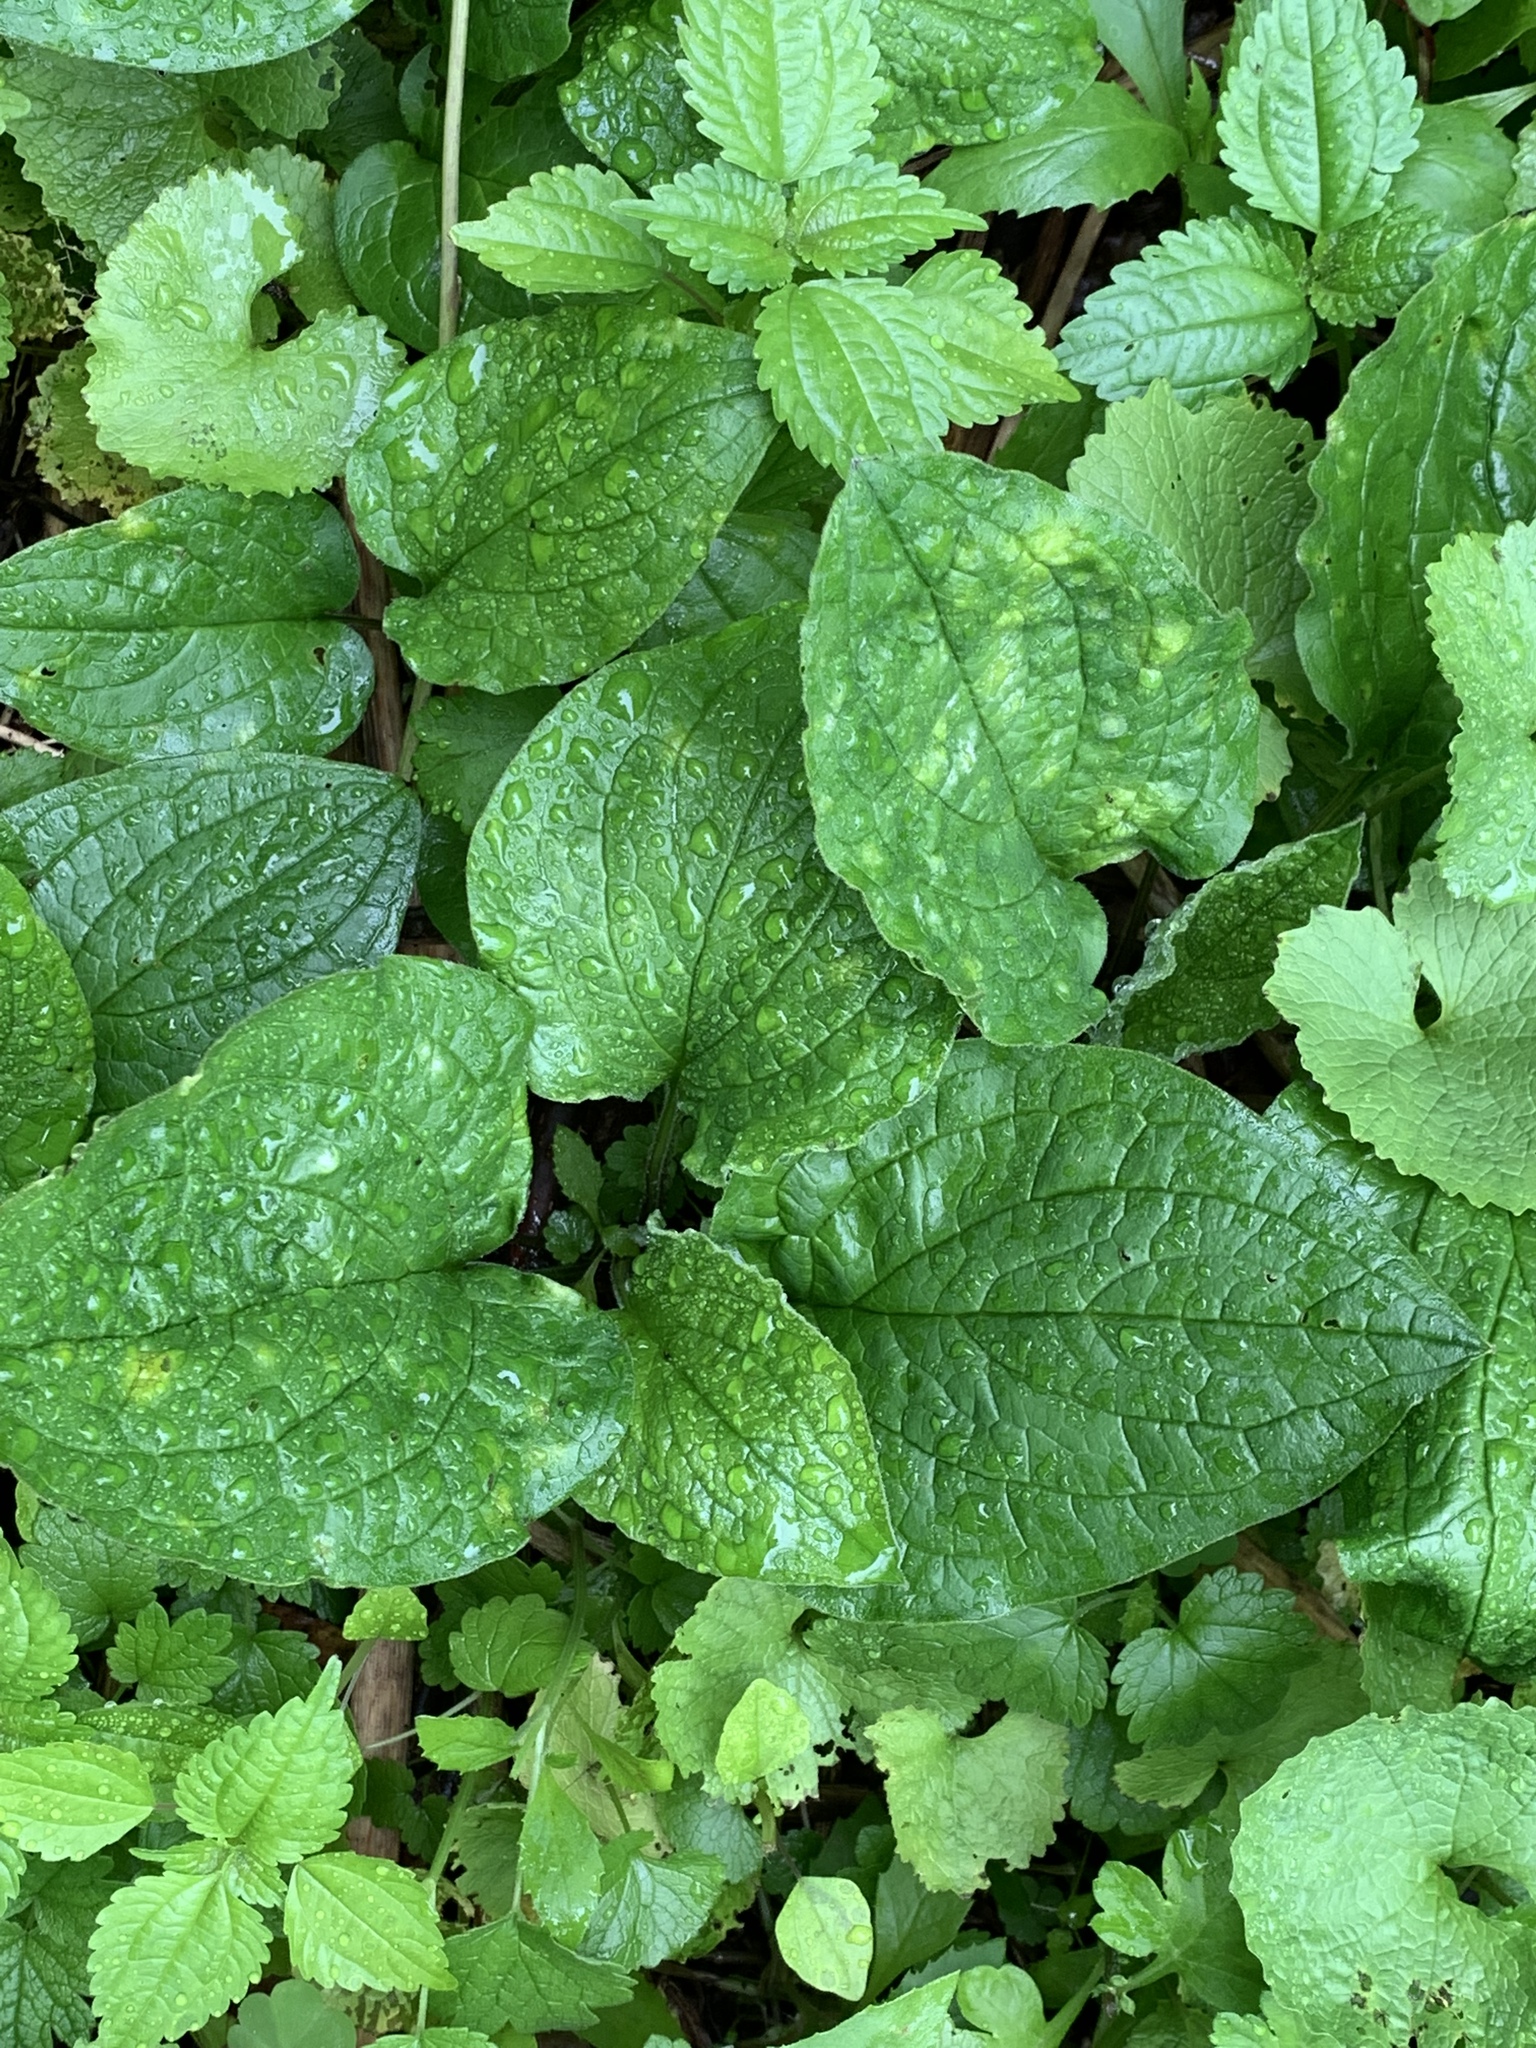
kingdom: Plantae
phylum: Tracheophyta
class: Magnoliopsida
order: Boraginales
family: Boraginaceae
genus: Hackelia
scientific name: Hackelia virginiana
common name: Beggar's-lice
